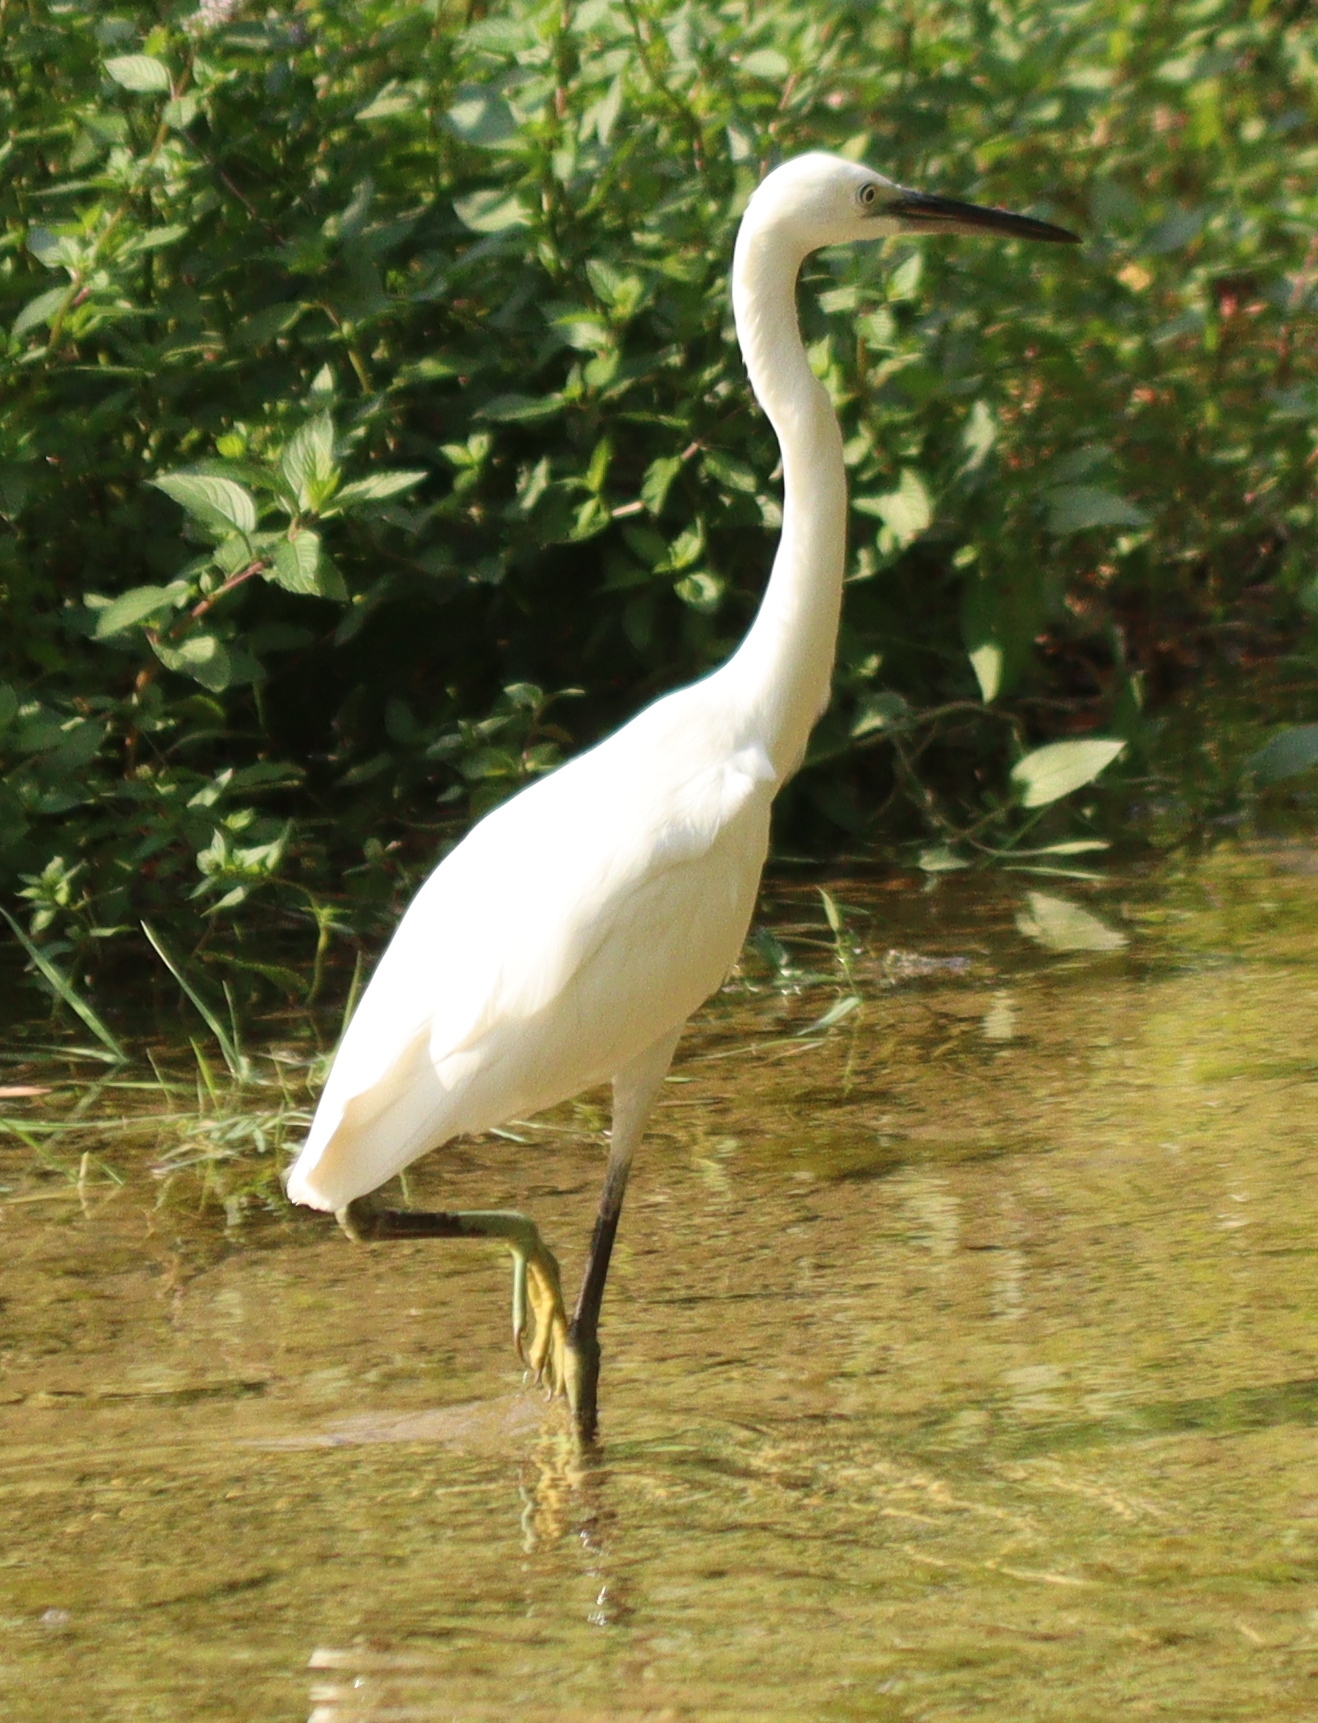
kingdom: Animalia
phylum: Chordata
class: Aves
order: Pelecaniformes
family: Ardeidae
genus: Egretta
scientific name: Egretta garzetta
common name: Little egret
